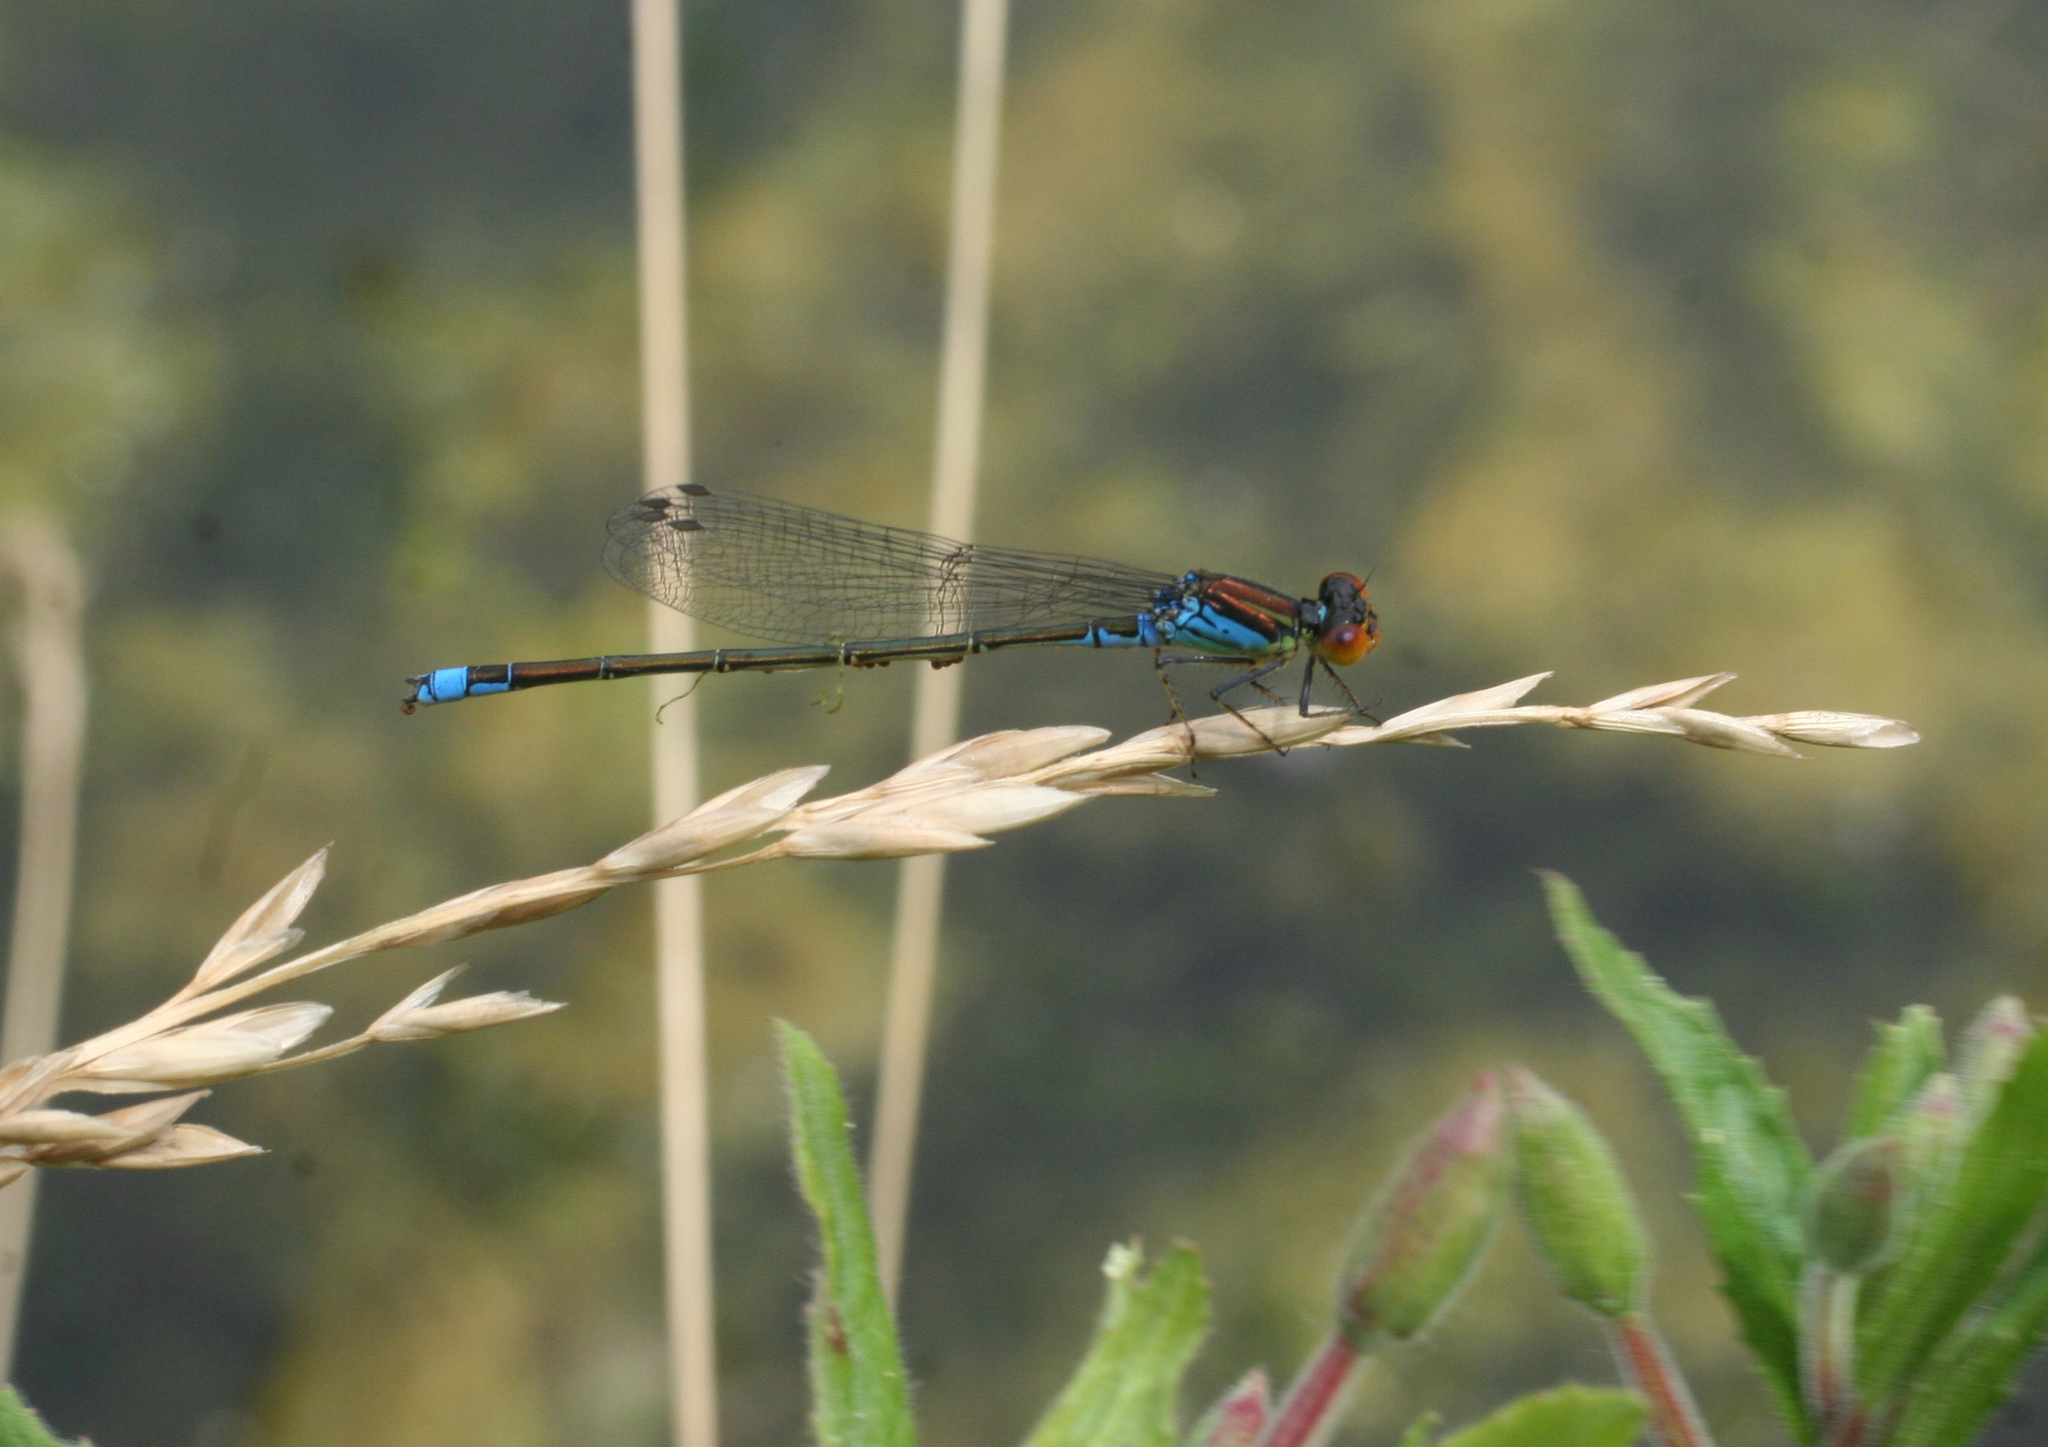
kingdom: Animalia
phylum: Arthropoda
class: Insecta
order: Odonata
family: Coenagrionidae
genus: Erythromma
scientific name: Erythromma viridulum
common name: Small red-eyed damselfly
